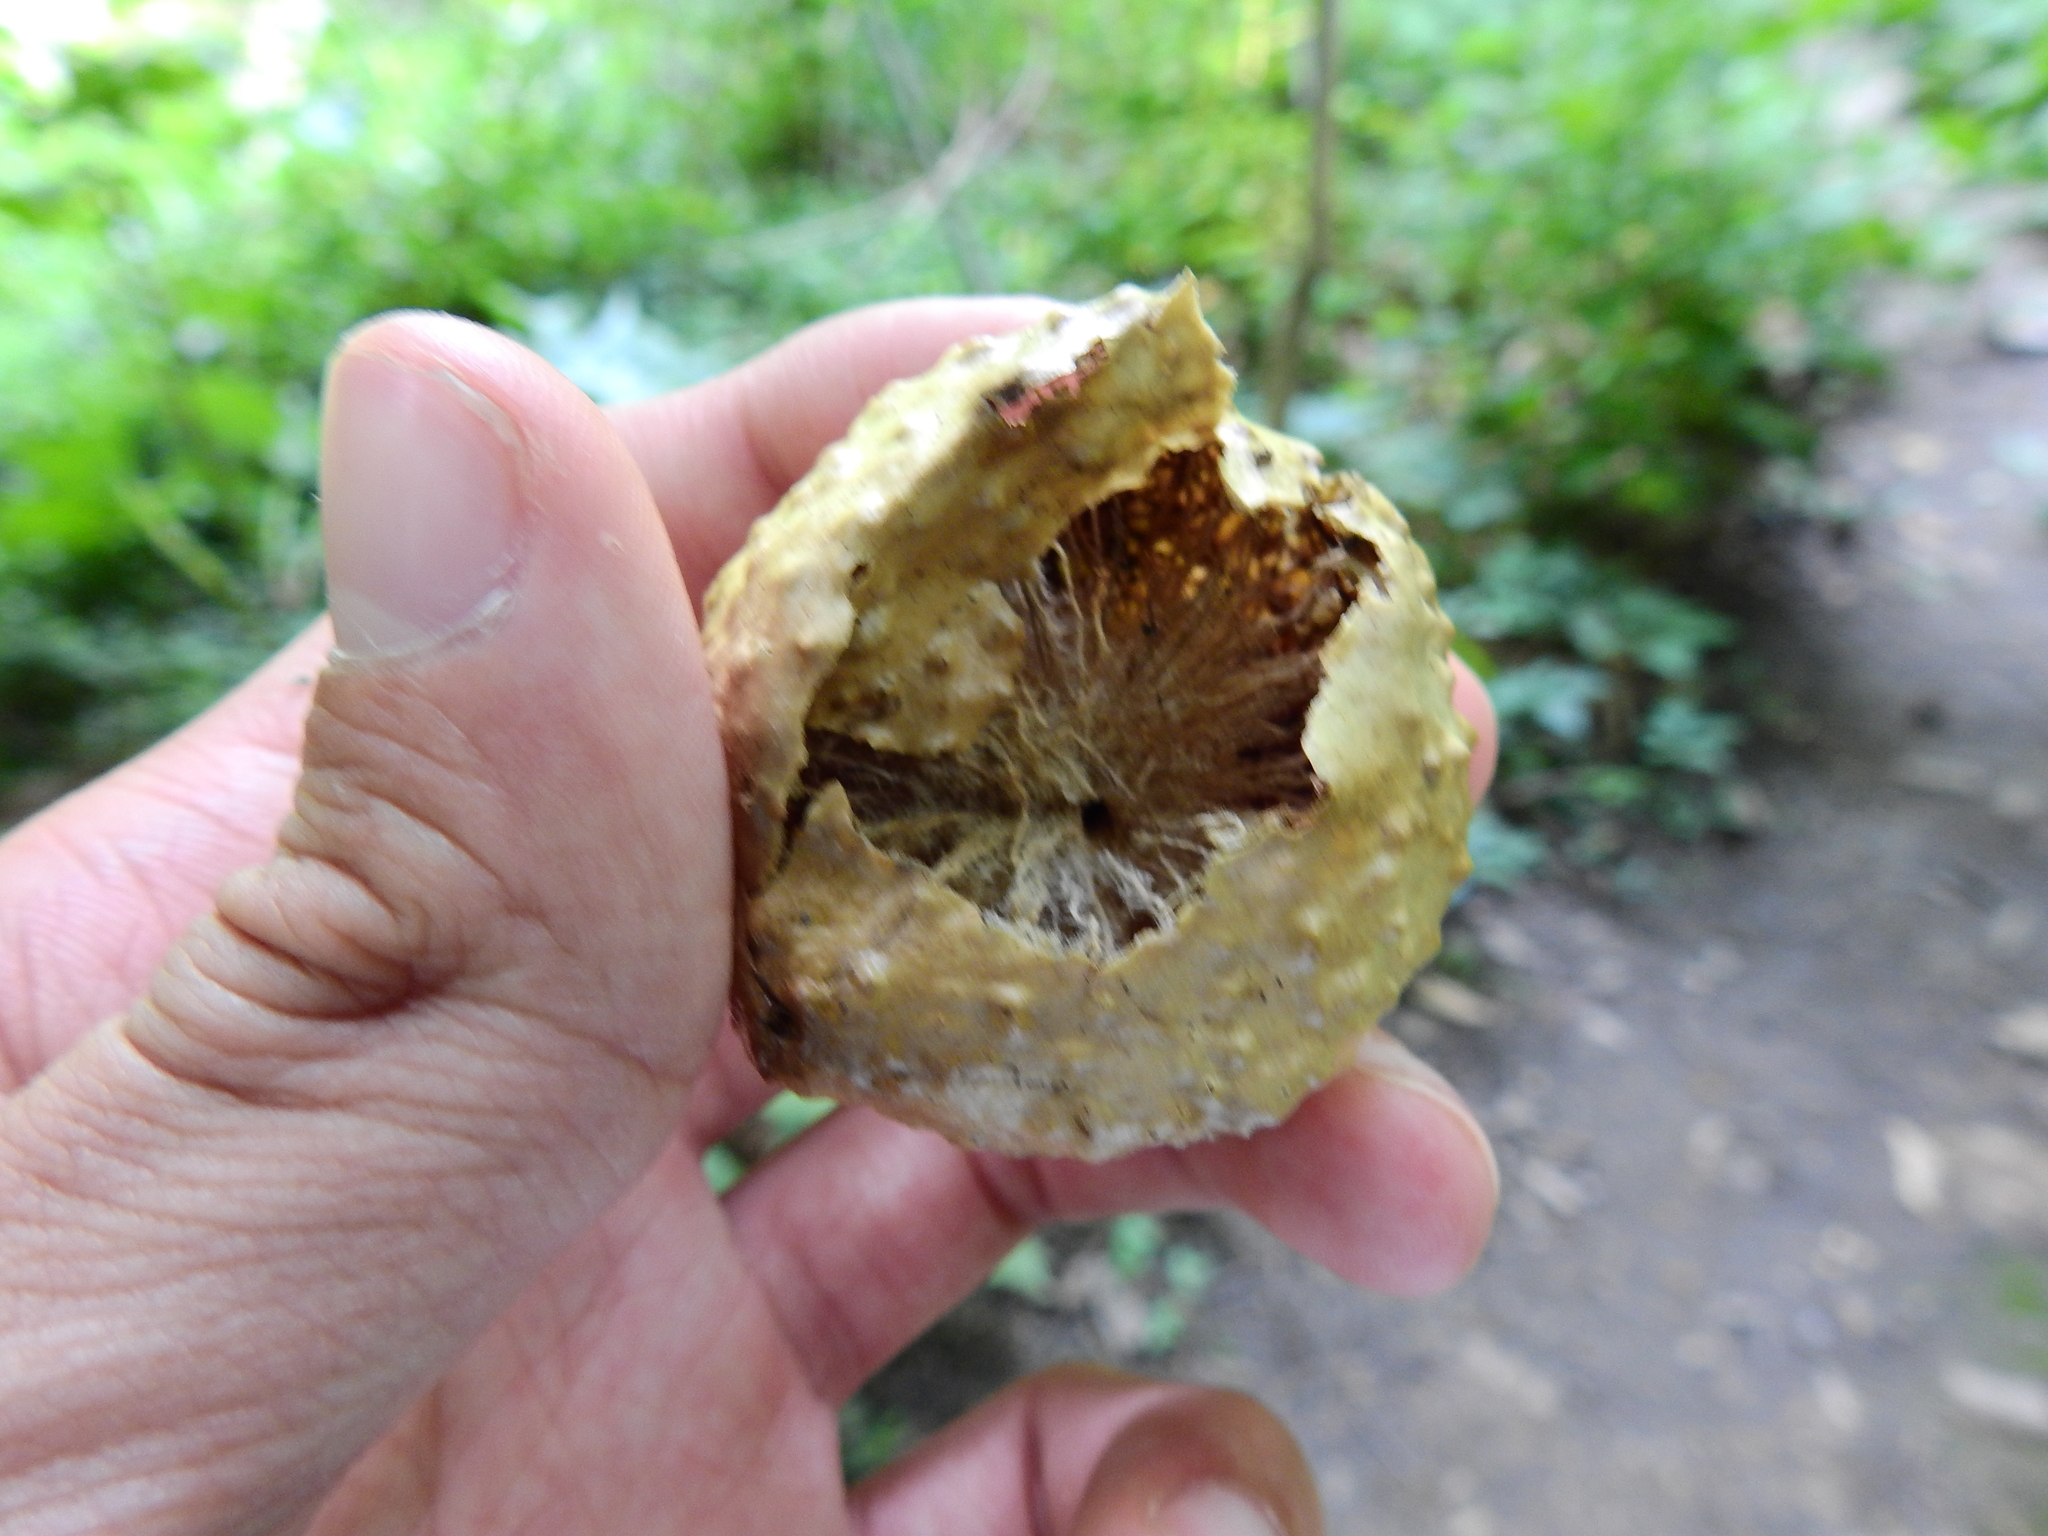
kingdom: Animalia
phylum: Arthropoda
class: Insecta
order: Hymenoptera
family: Cynipidae
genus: Amphibolips
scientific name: Amphibolips
